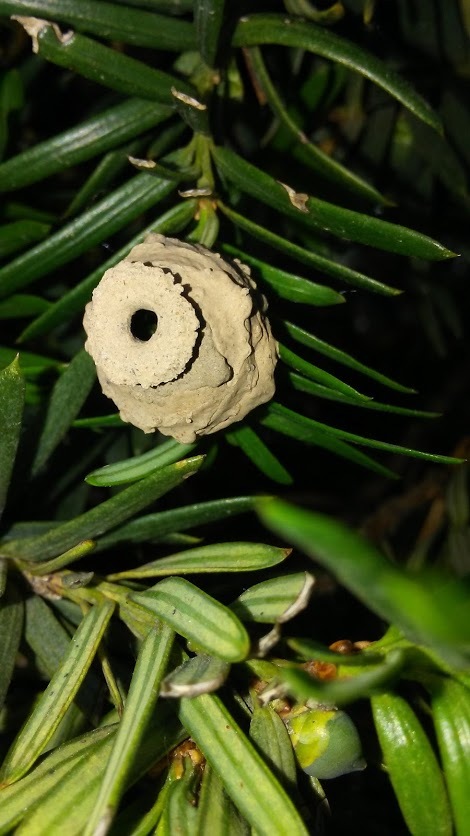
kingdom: Animalia
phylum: Arthropoda
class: Insecta
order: Hymenoptera
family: Vespidae
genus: Eumenes
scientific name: Eumenes fraternus
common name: Fraternal potter wasp
